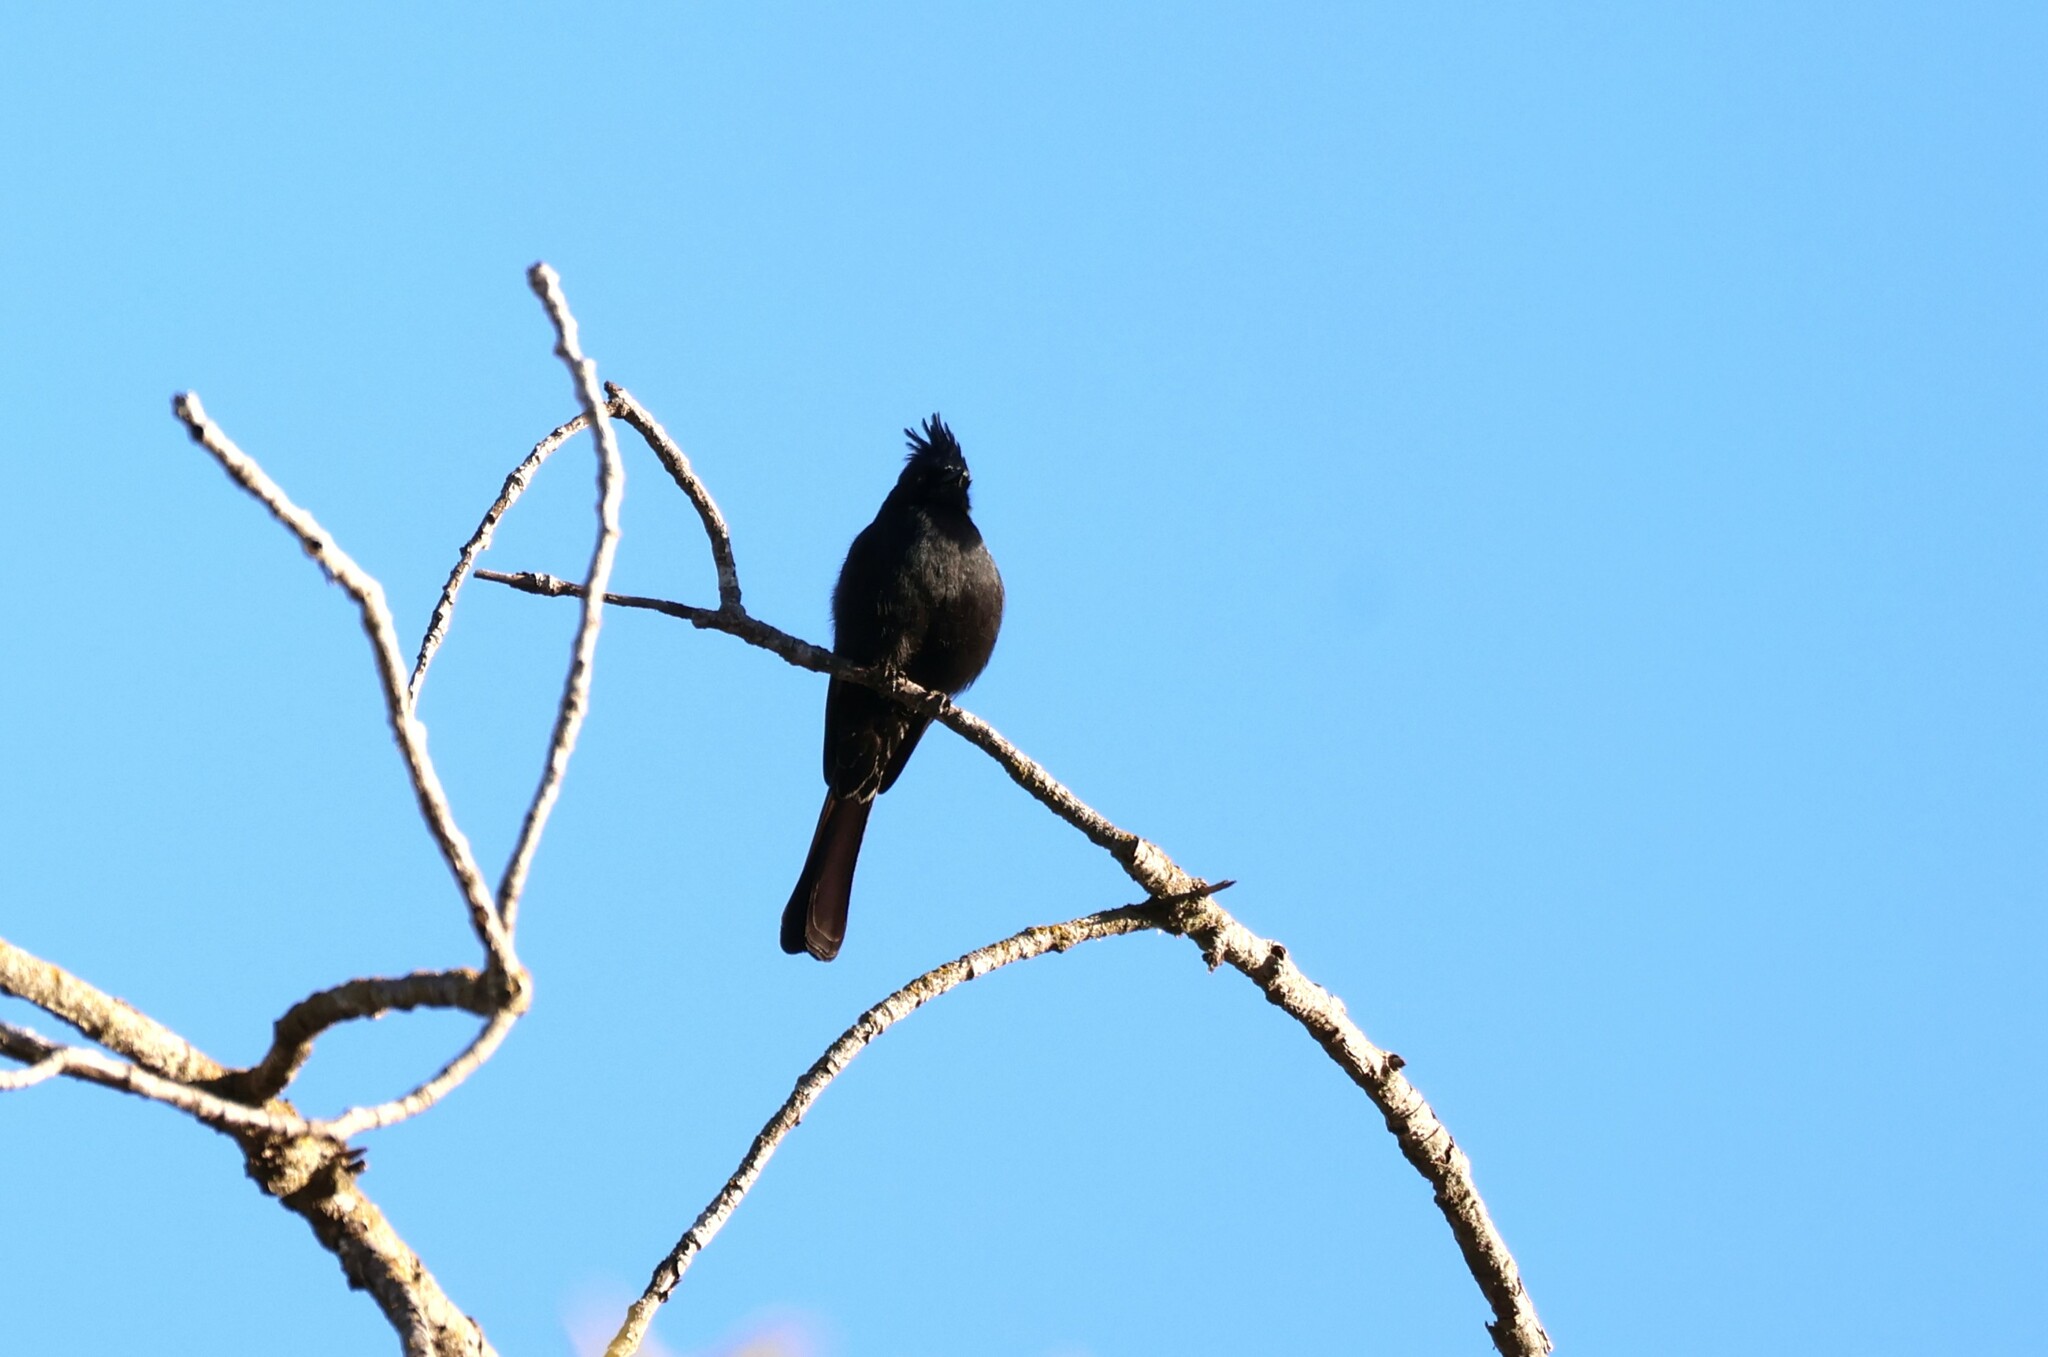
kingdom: Animalia
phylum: Chordata
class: Aves
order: Passeriformes
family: Ptilogonatidae
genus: Phainopepla
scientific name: Phainopepla nitens
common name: Phainopepla
